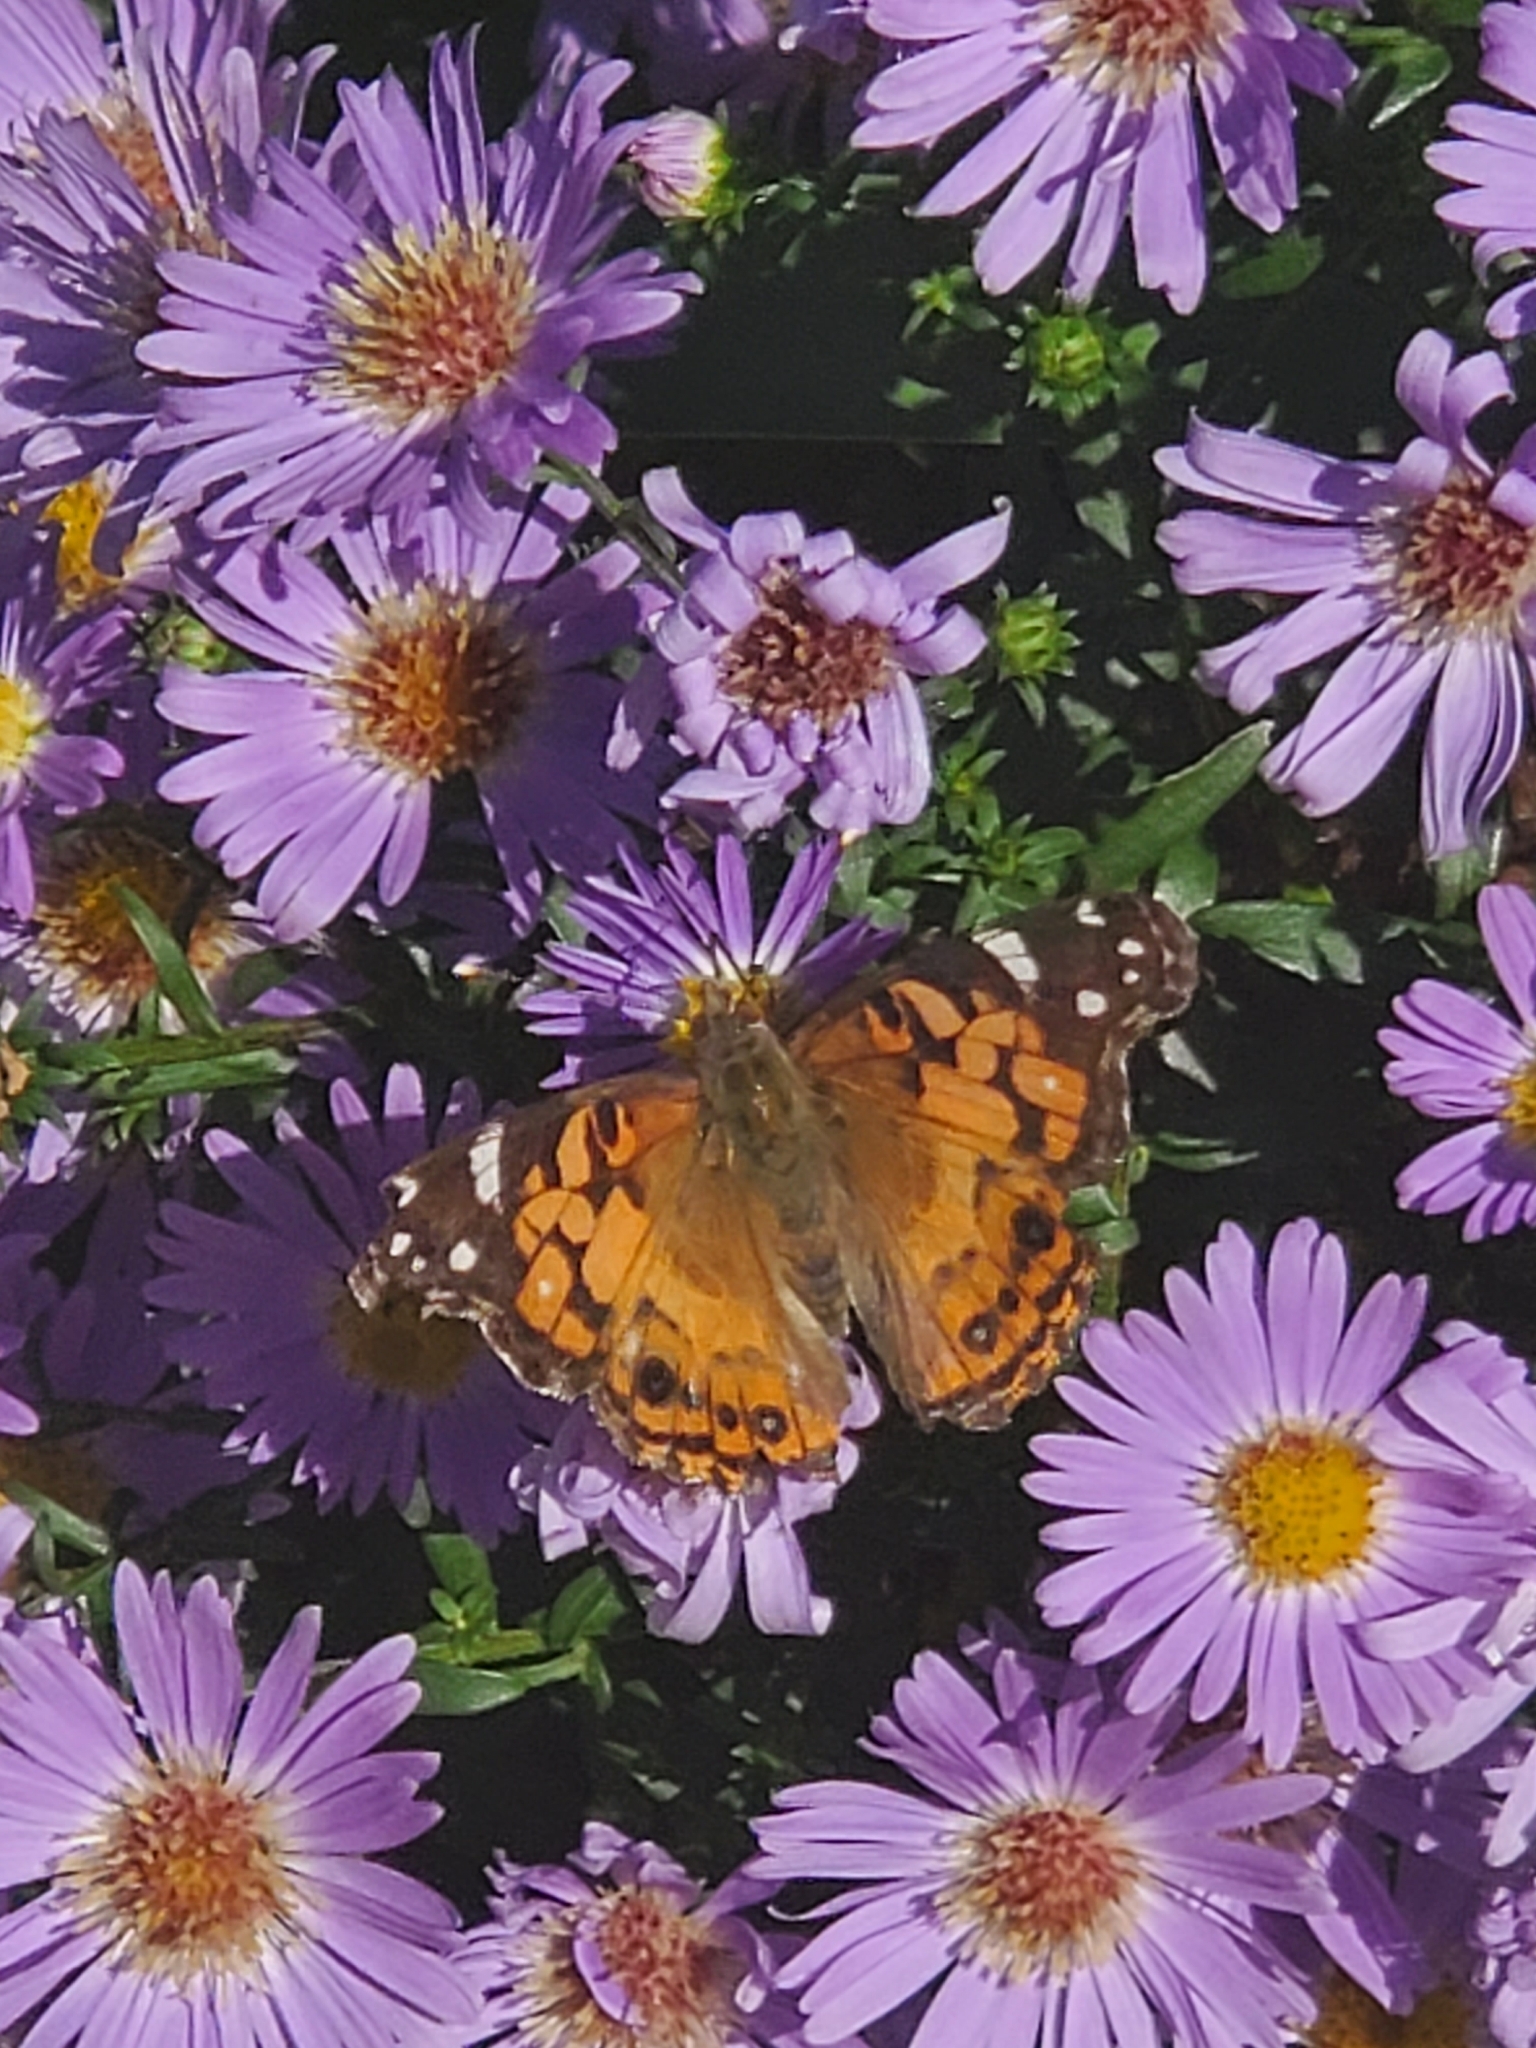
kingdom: Animalia
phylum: Arthropoda
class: Insecta
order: Lepidoptera
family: Nymphalidae
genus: Vanessa
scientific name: Vanessa virginiensis
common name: American lady
